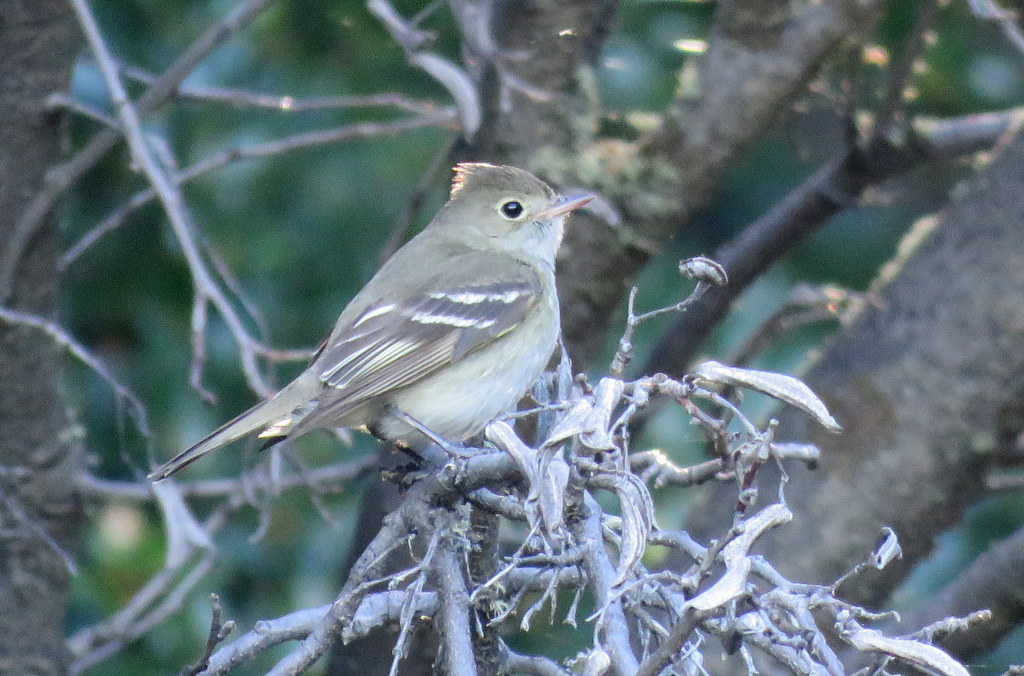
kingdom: Animalia
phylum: Chordata
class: Aves
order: Passeriformes
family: Tyrannidae
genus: Elaenia
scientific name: Elaenia albiceps
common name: White-crested elaenia
